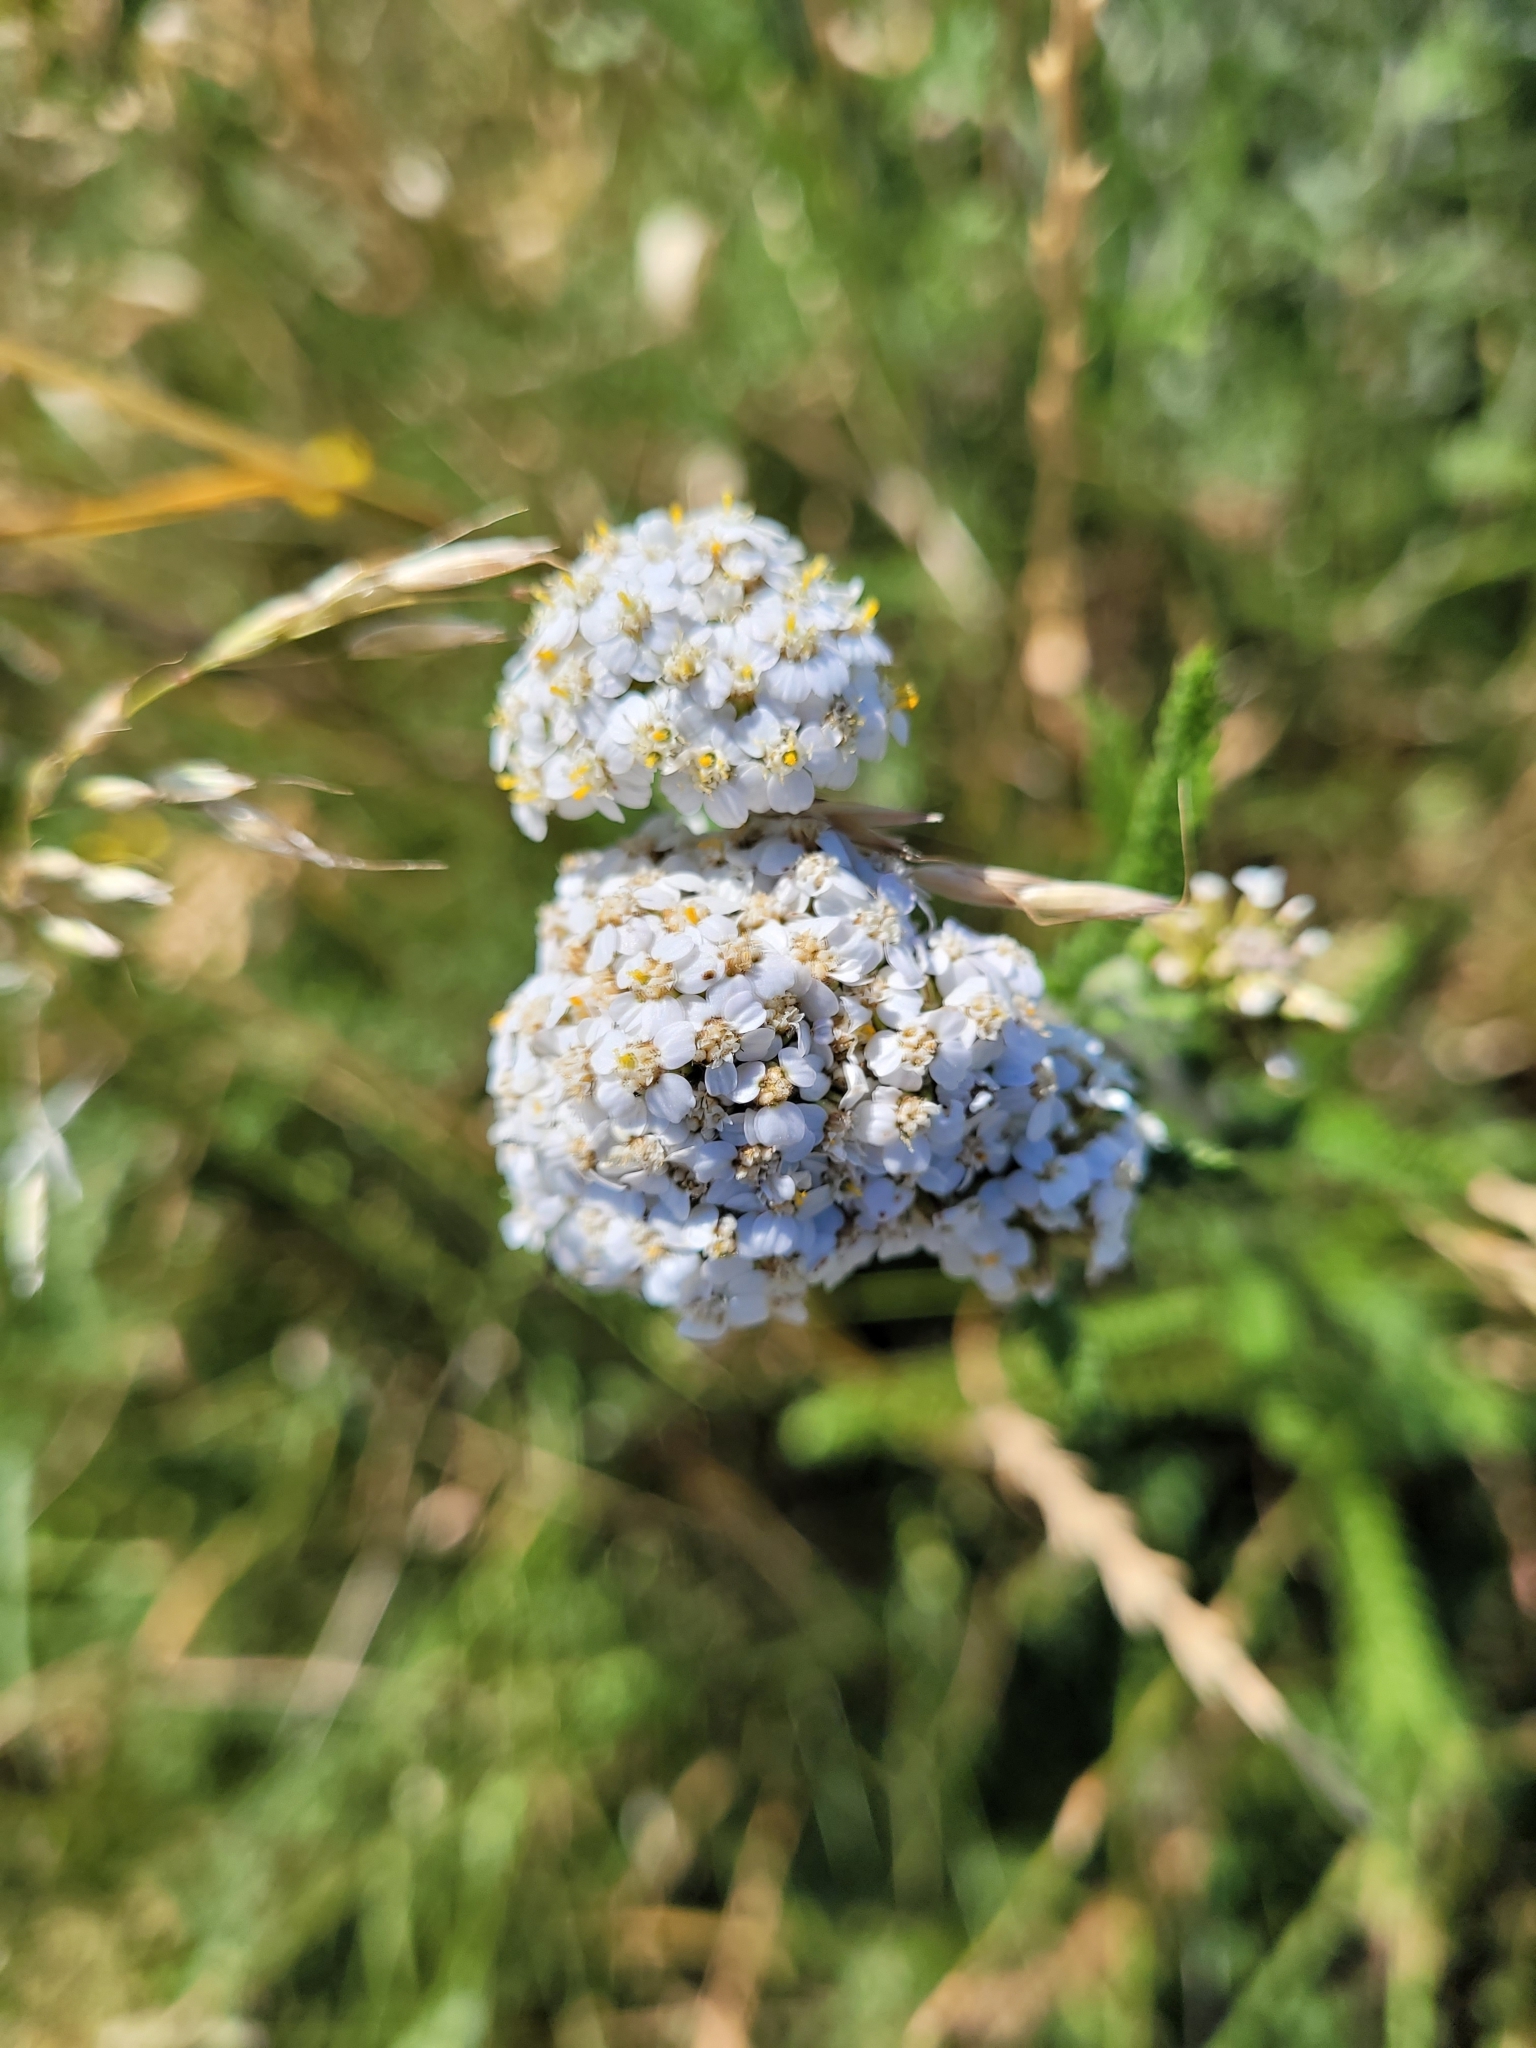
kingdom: Plantae
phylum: Tracheophyta
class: Magnoliopsida
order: Asterales
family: Asteraceae
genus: Achillea
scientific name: Achillea millefolium
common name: Yarrow
